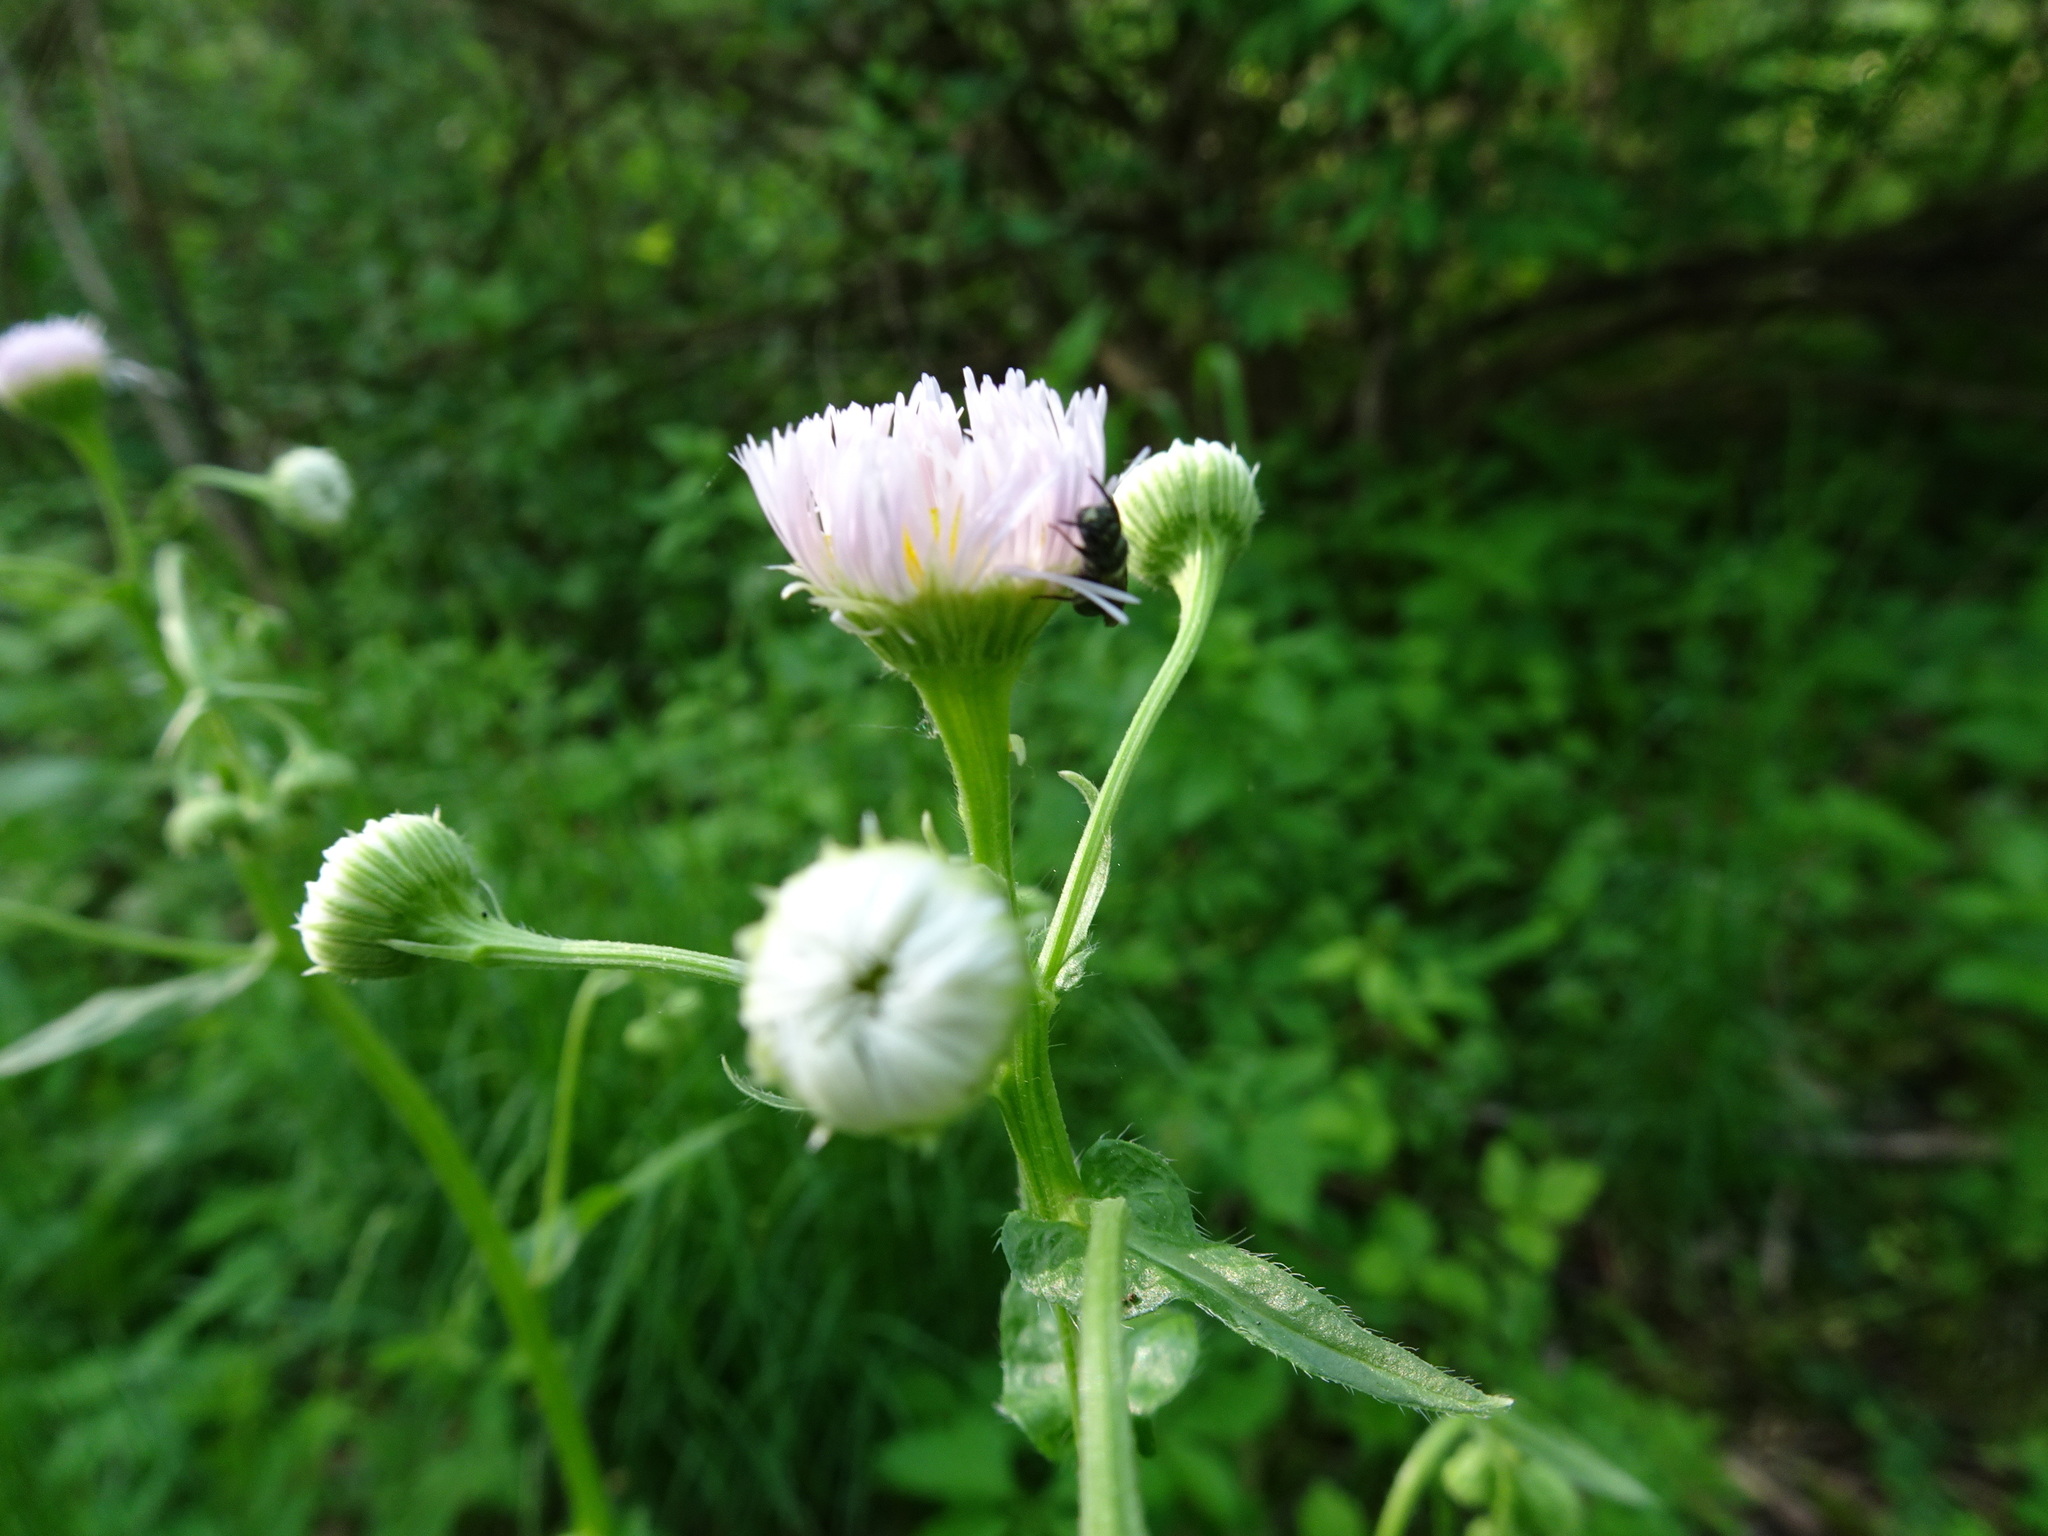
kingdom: Plantae
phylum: Tracheophyta
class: Magnoliopsida
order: Asterales
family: Asteraceae
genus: Erigeron
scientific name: Erigeron philadelphicus
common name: Robin's-plantain
